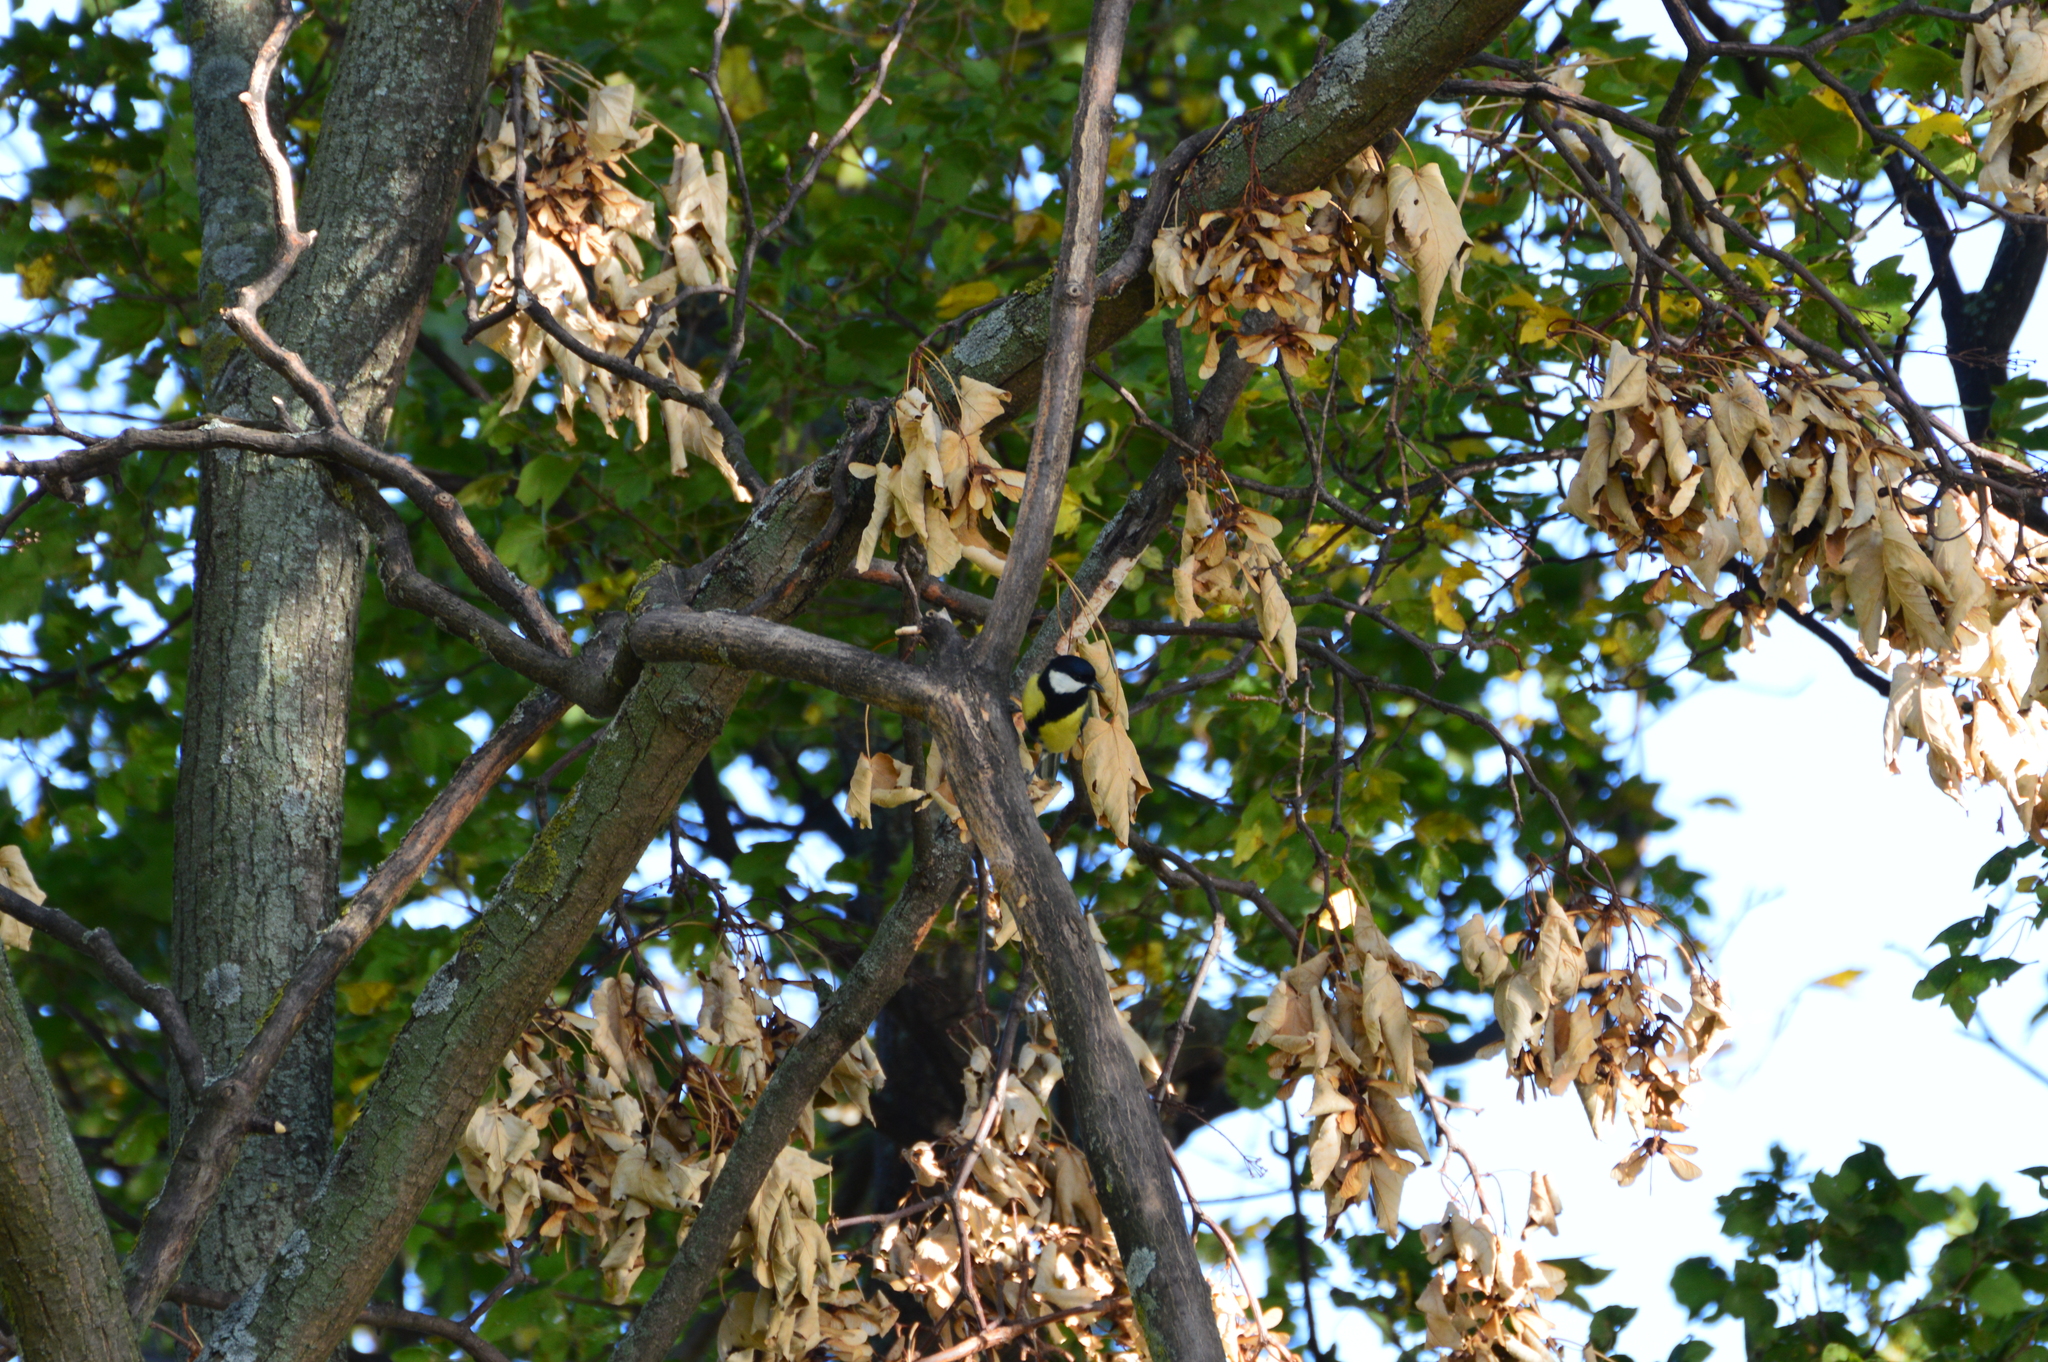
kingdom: Animalia
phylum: Chordata
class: Aves
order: Passeriformes
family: Paridae
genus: Parus
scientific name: Parus major
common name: Great tit
